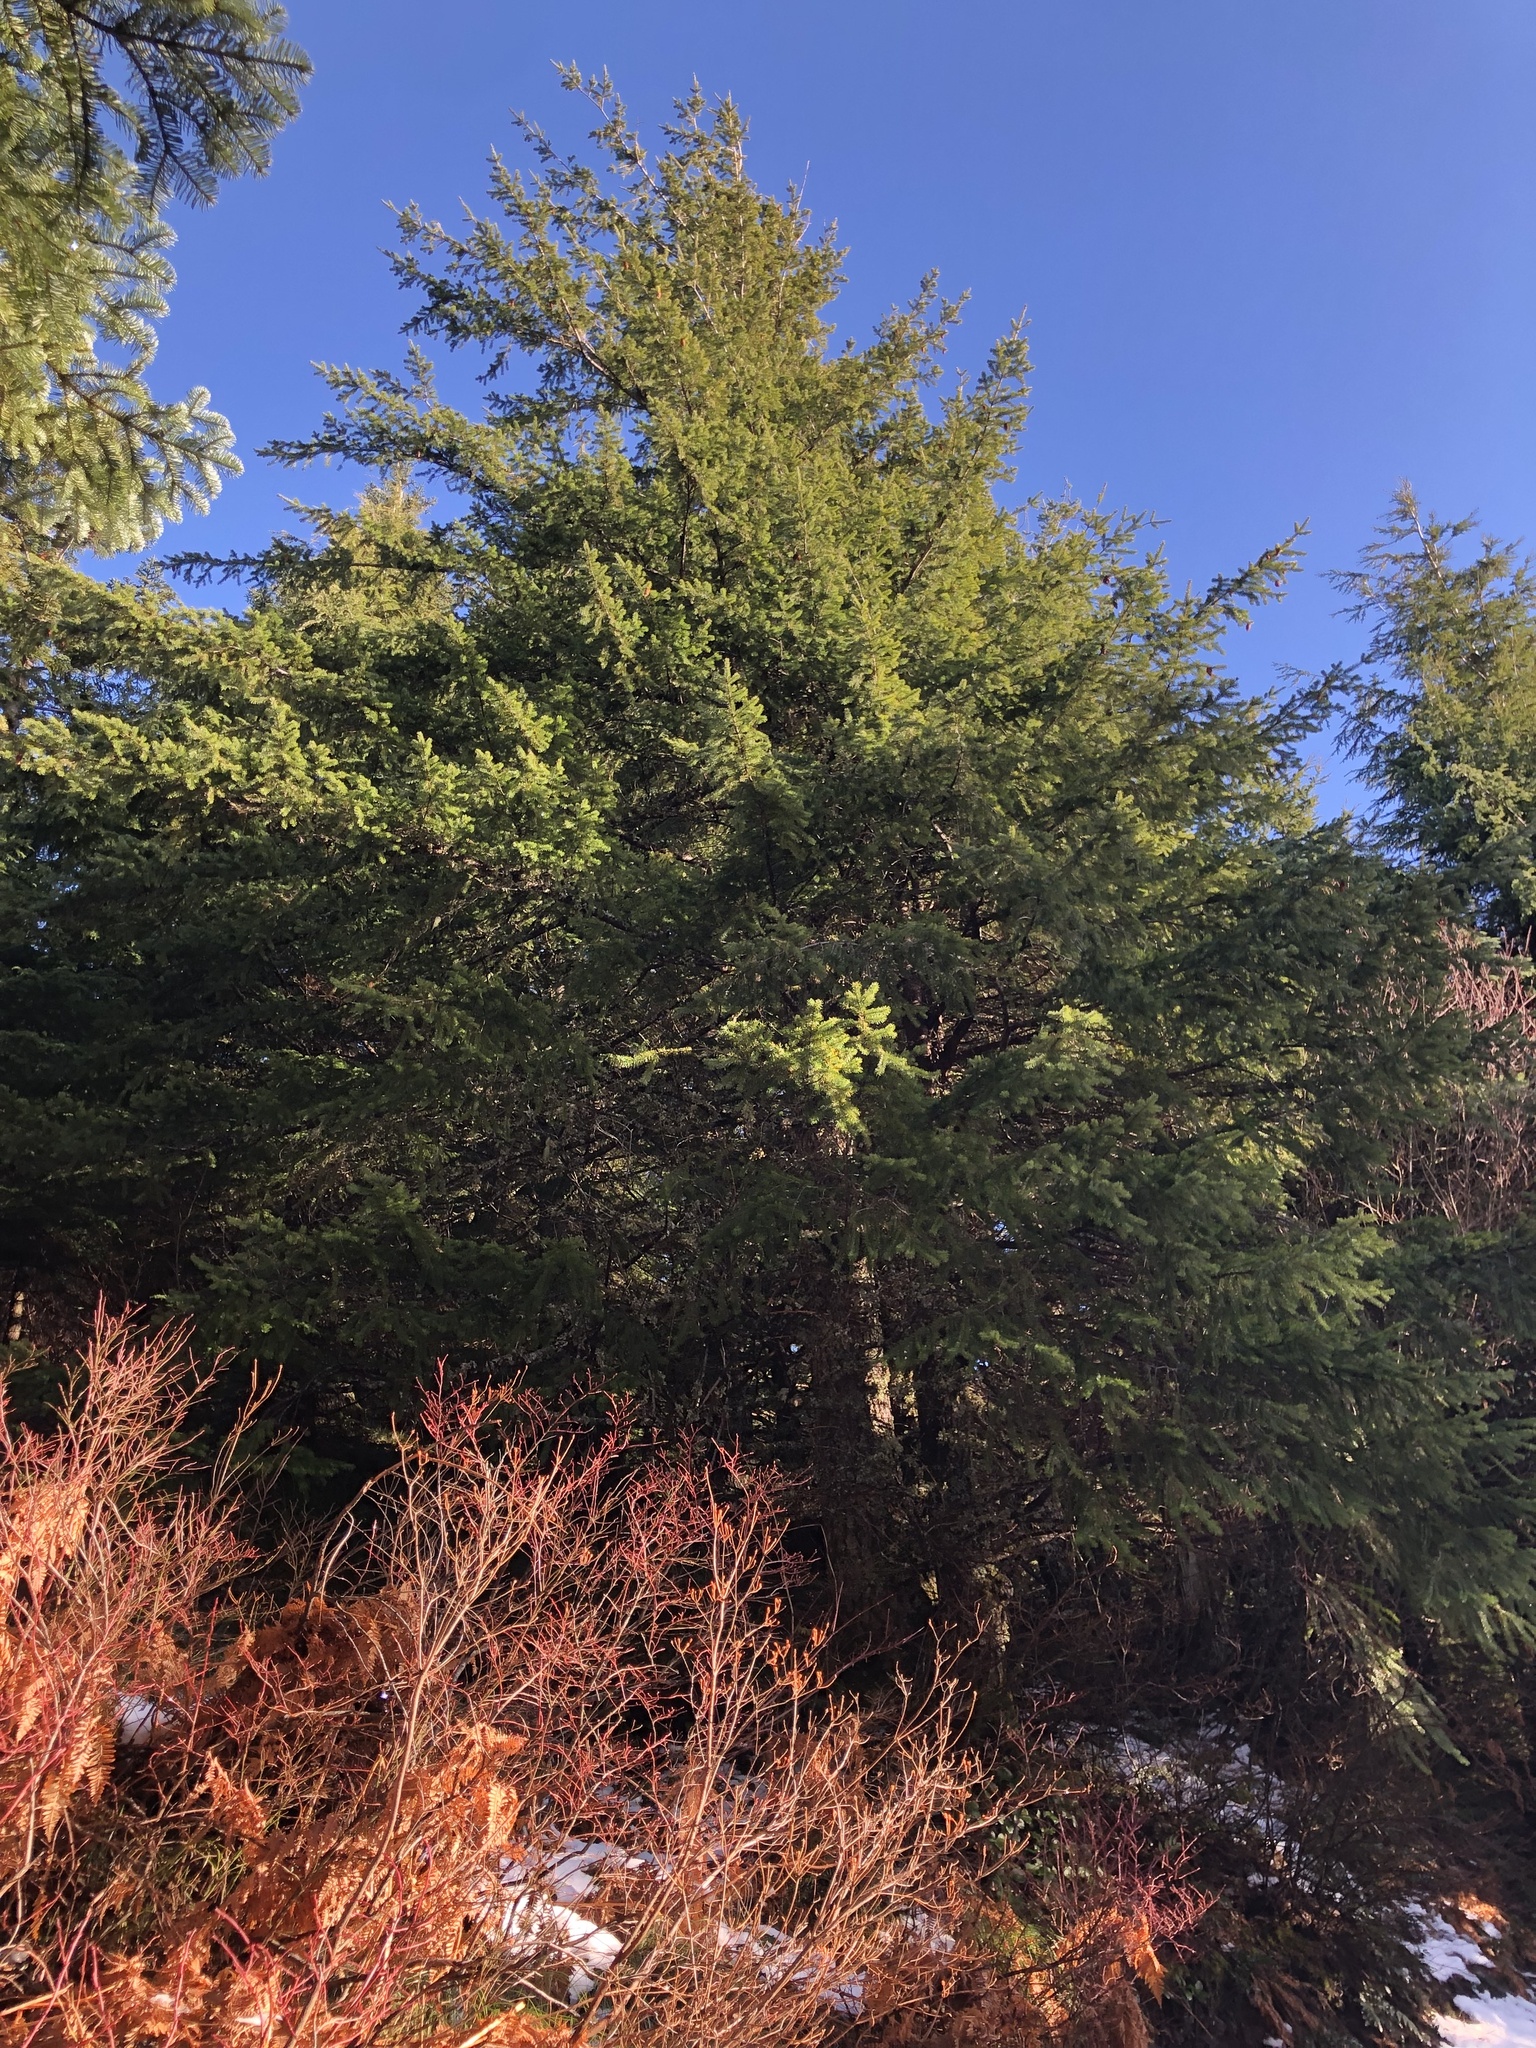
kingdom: Plantae
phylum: Tracheophyta
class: Pinopsida
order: Pinales
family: Pinaceae
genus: Pseudotsuga
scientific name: Pseudotsuga menziesii
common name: Douglas fir
